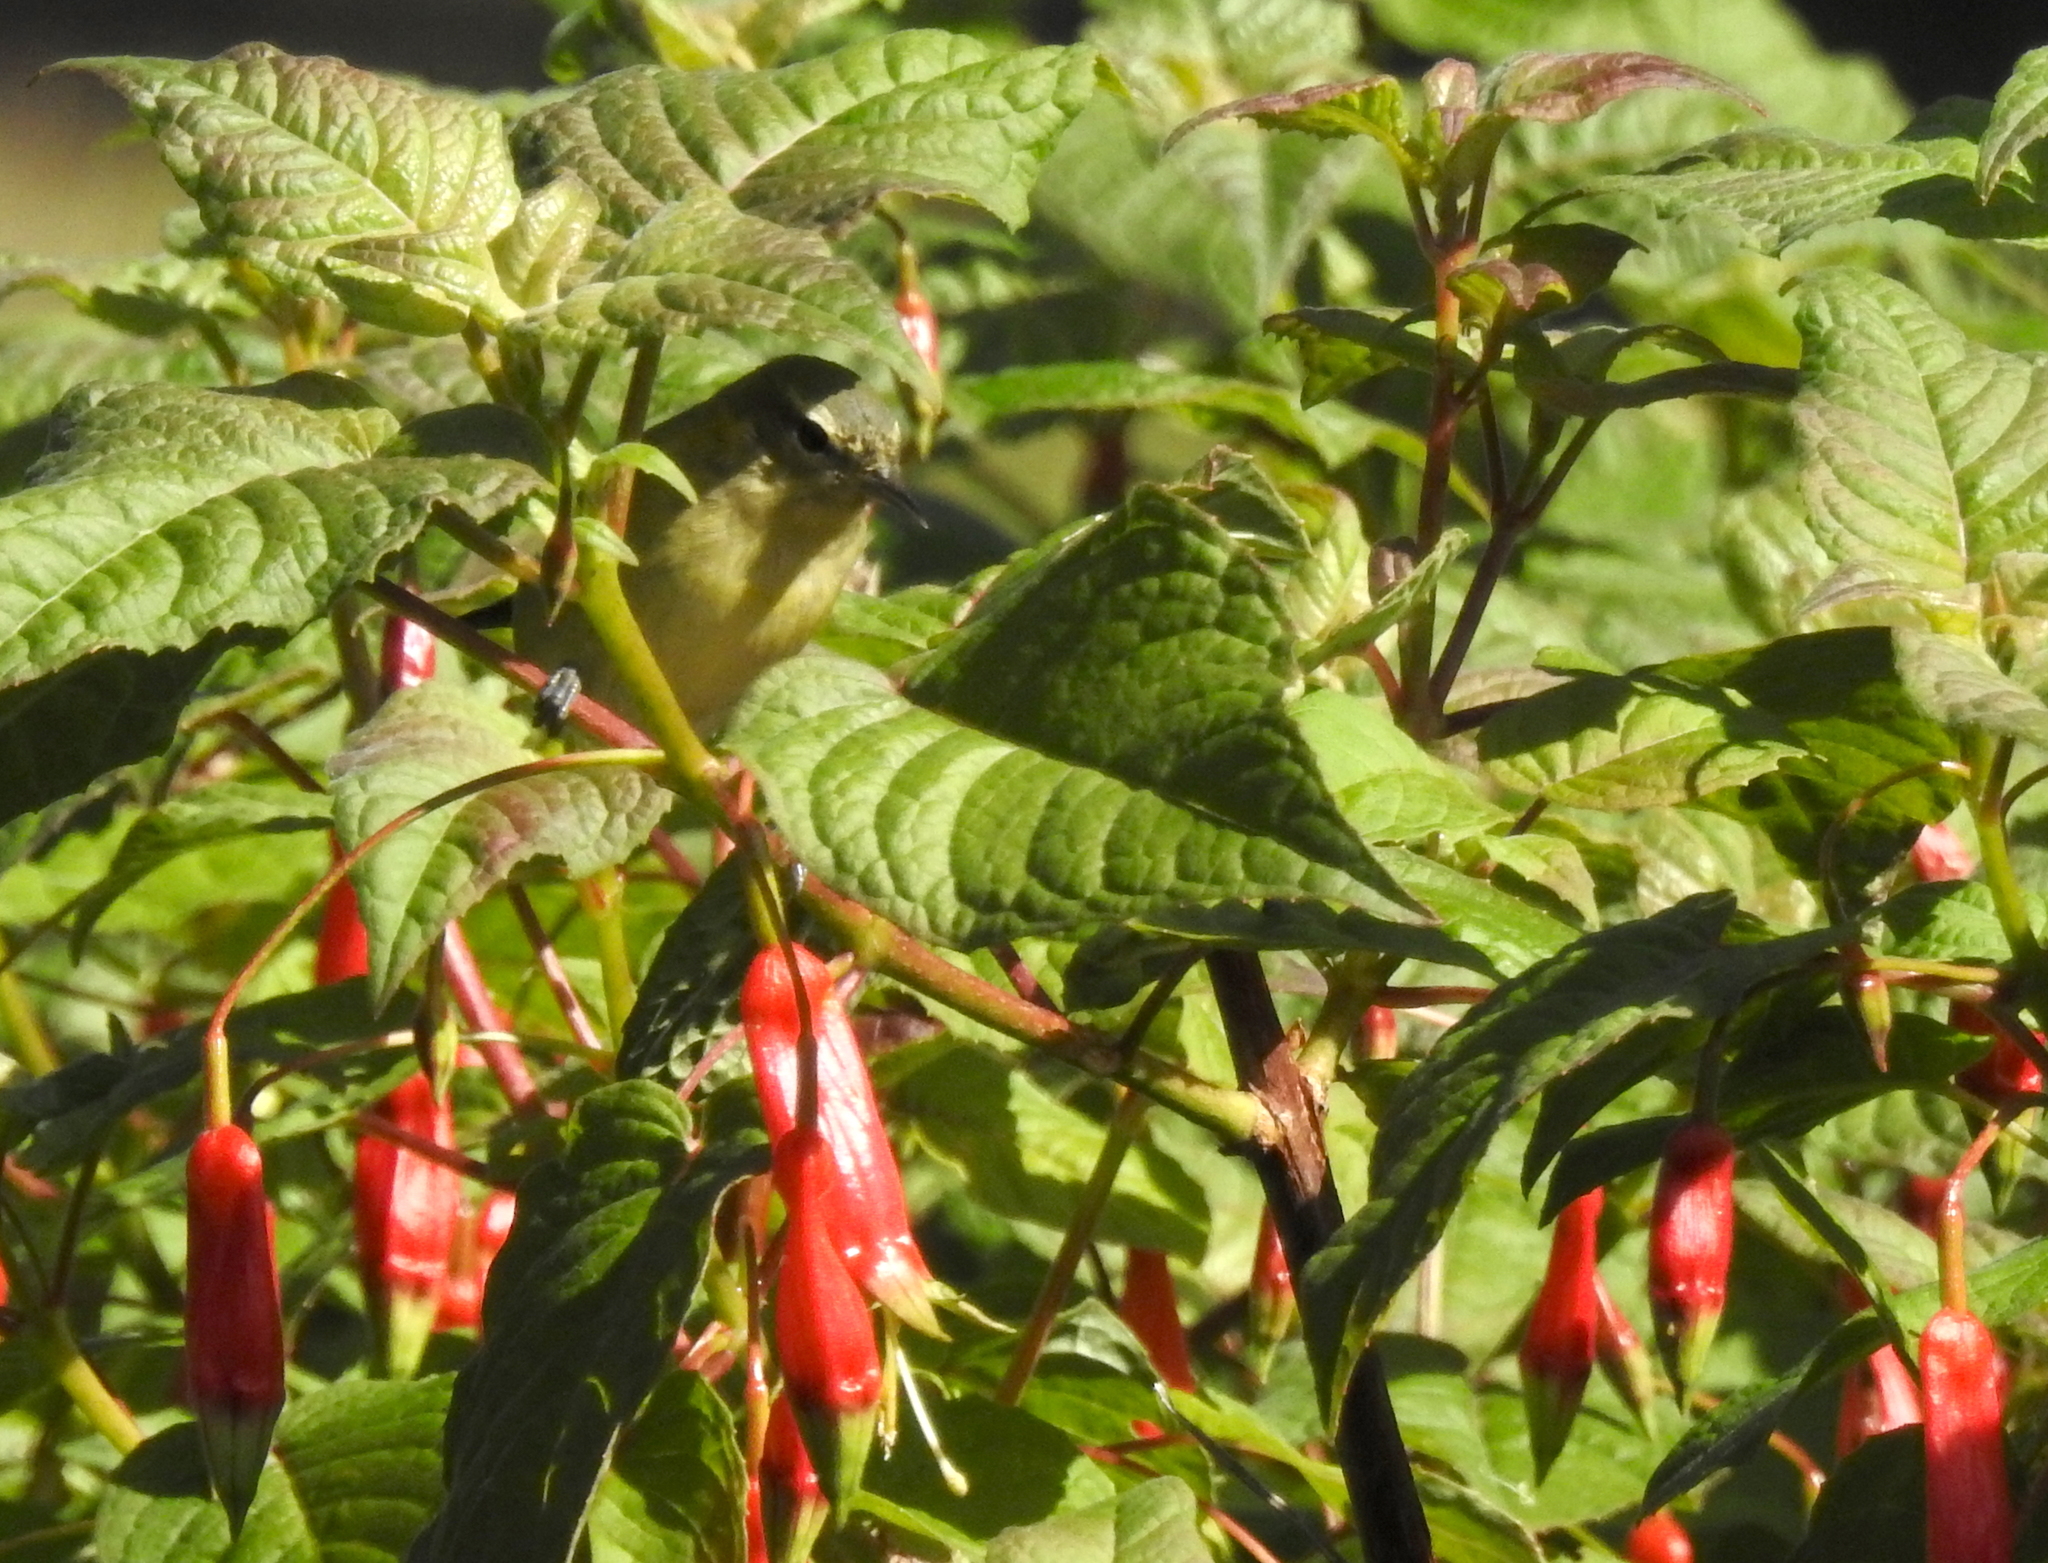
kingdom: Animalia
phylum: Chordata
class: Aves
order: Passeriformes
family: Parulidae
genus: Leiothlypis
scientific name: Leiothlypis peregrina
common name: Tennessee warbler
